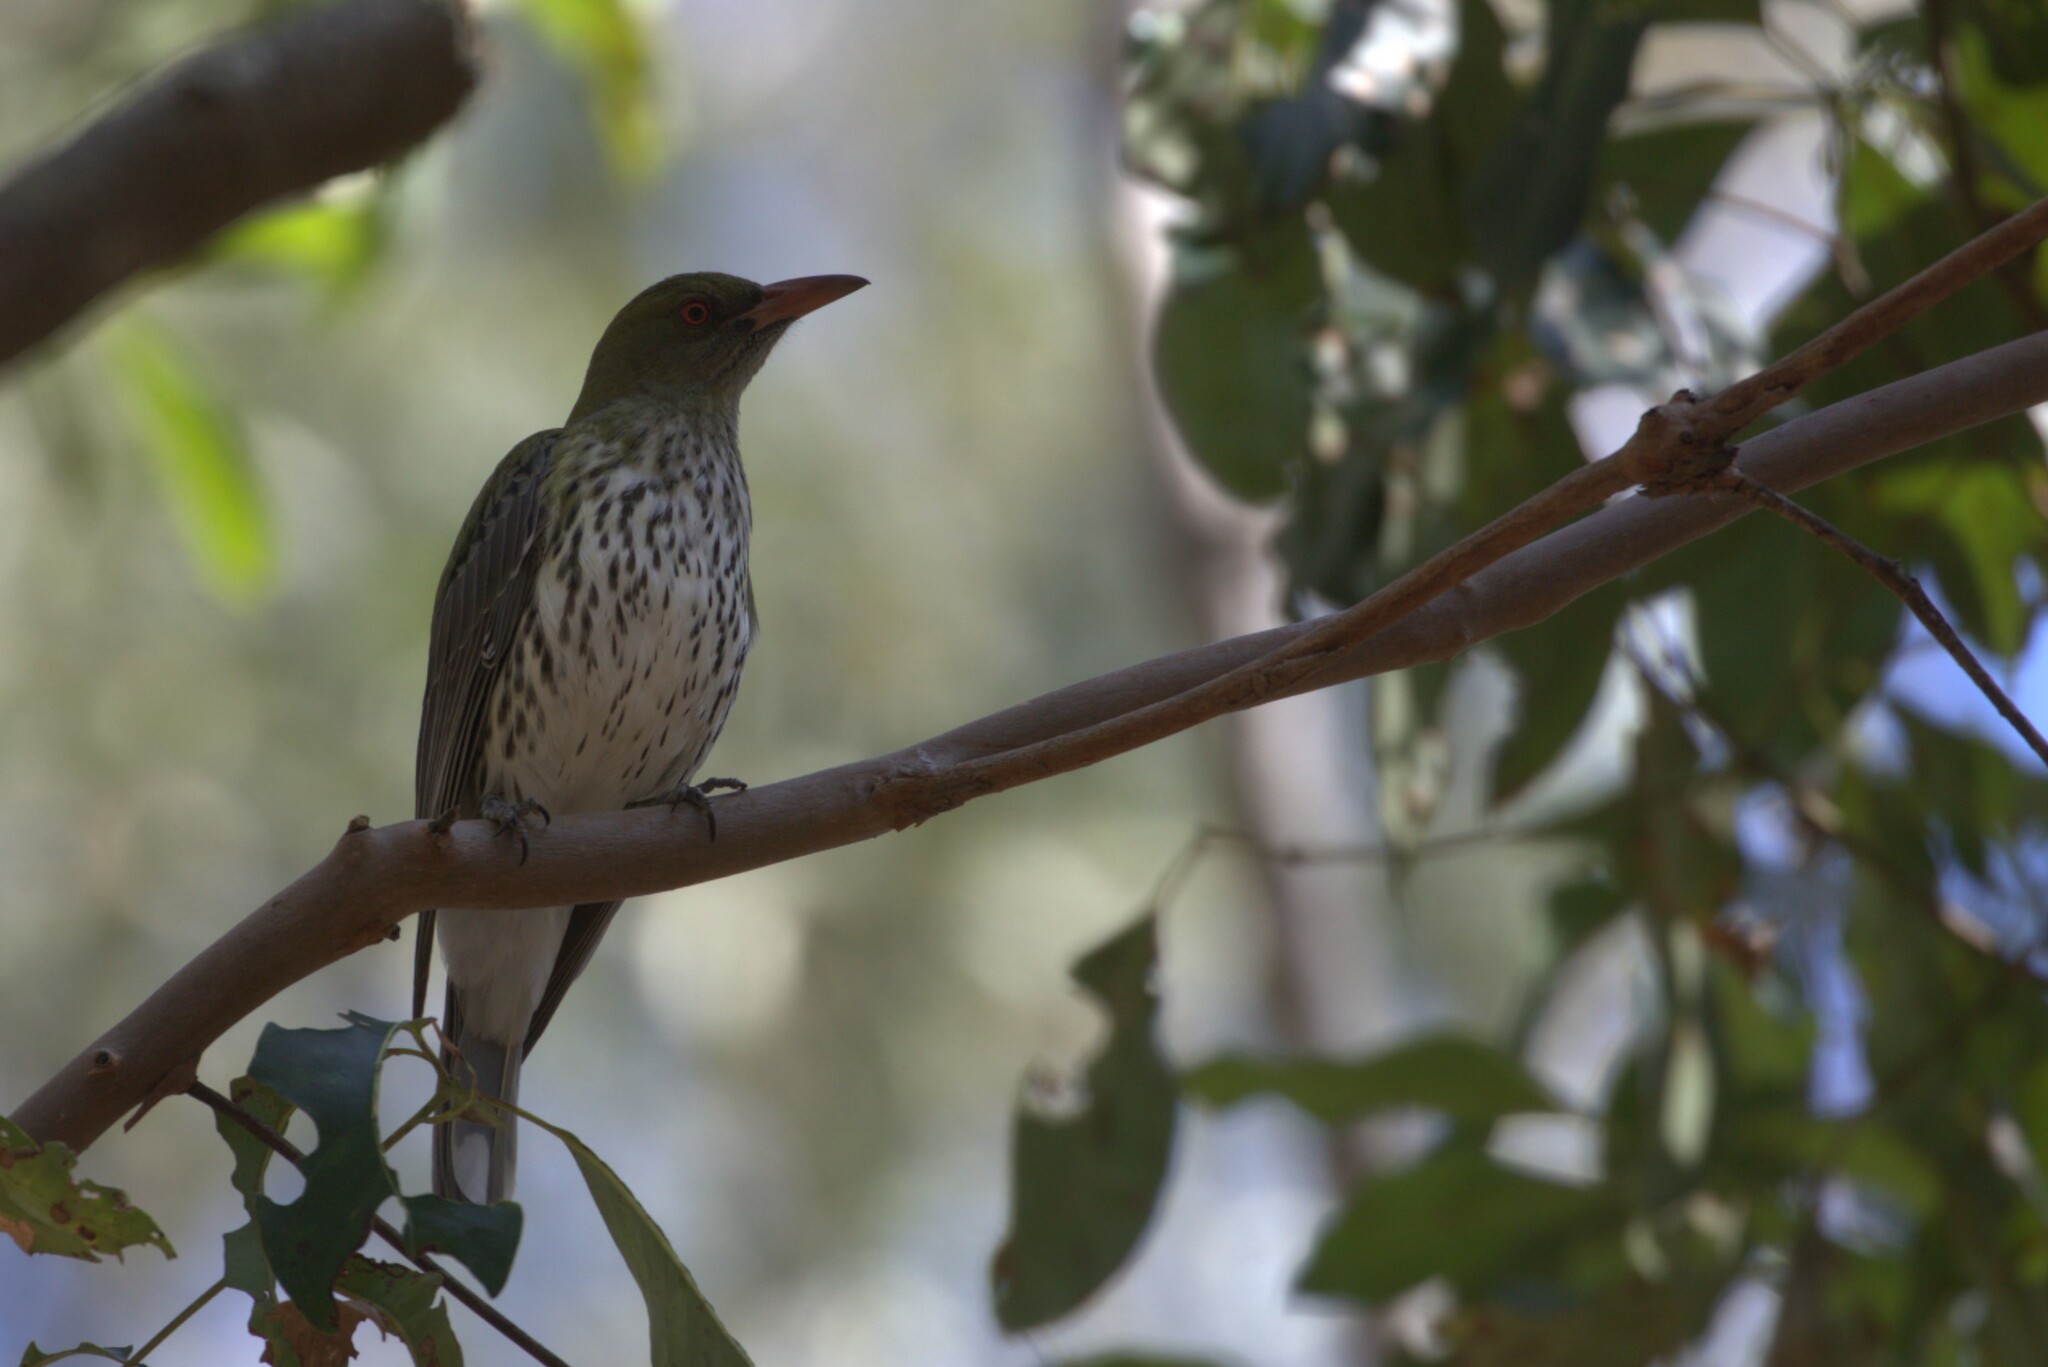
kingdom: Animalia
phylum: Chordata
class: Aves
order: Passeriformes
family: Oriolidae
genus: Oriolus
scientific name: Oriolus sagittatus
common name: Olive-backed oriole
